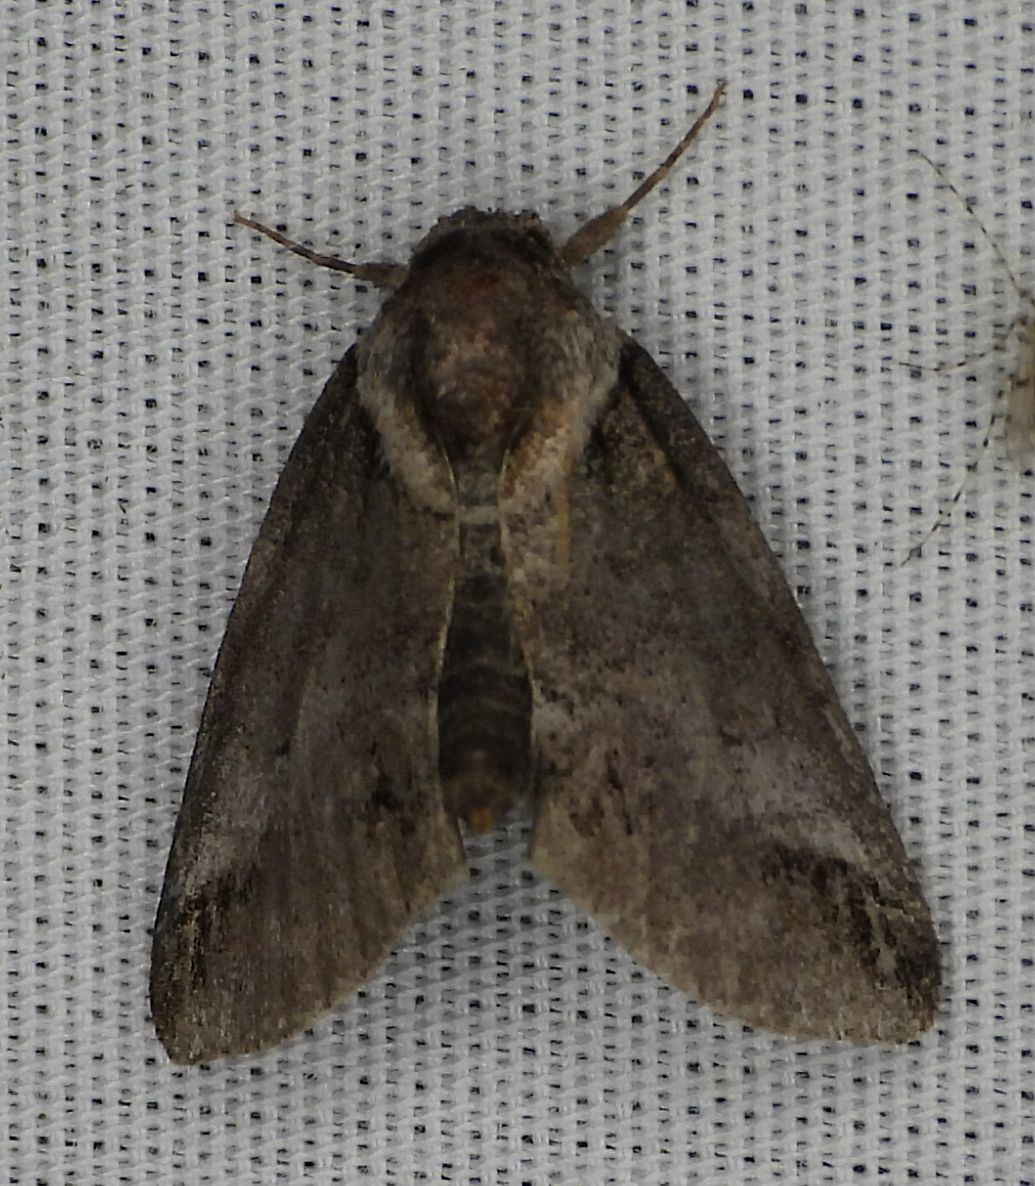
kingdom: Animalia
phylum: Arthropoda
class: Insecta
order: Lepidoptera
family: Nolidae
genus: Baileya
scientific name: Baileya australis
